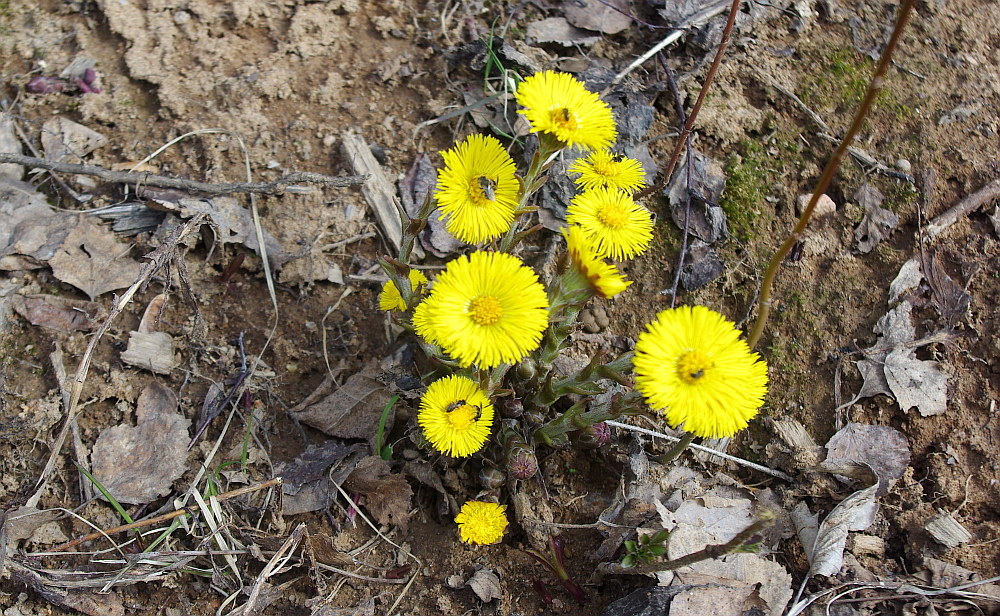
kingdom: Plantae
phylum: Tracheophyta
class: Magnoliopsida
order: Asterales
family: Asteraceae
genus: Tussilago
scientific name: Tussilago farfara
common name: Coltsfoot
